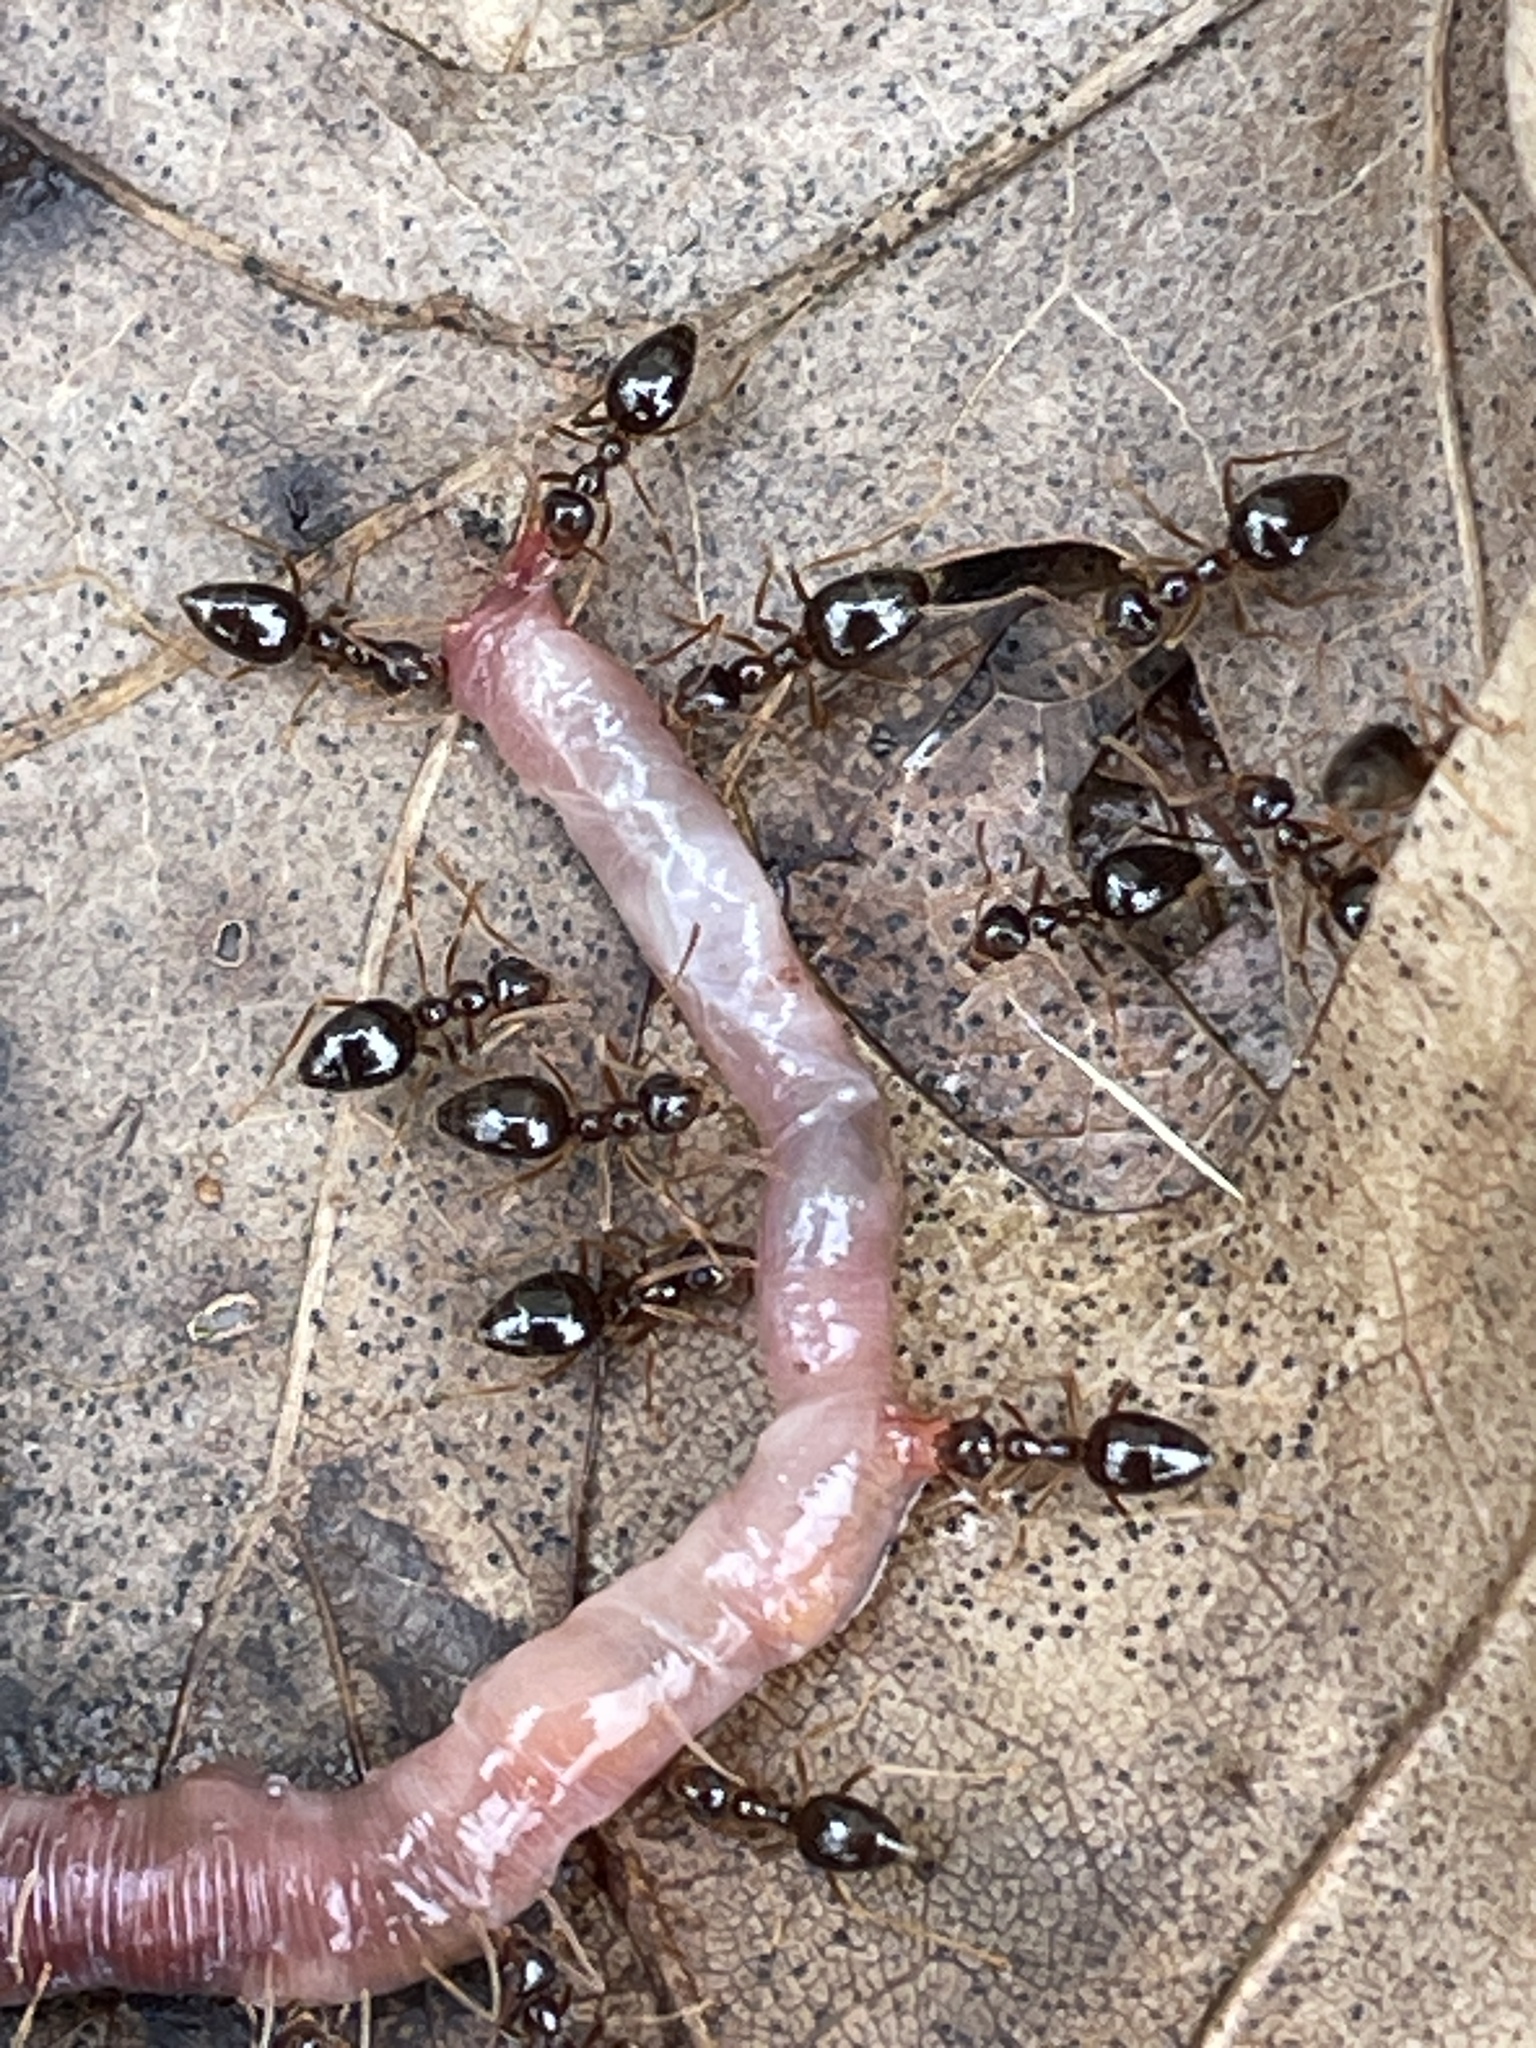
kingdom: Animalia
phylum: Arthropoda
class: Insecta
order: Hymenoptera
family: Formicidae
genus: Prenolepis
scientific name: Prenolepis imparis
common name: Small honey ant
